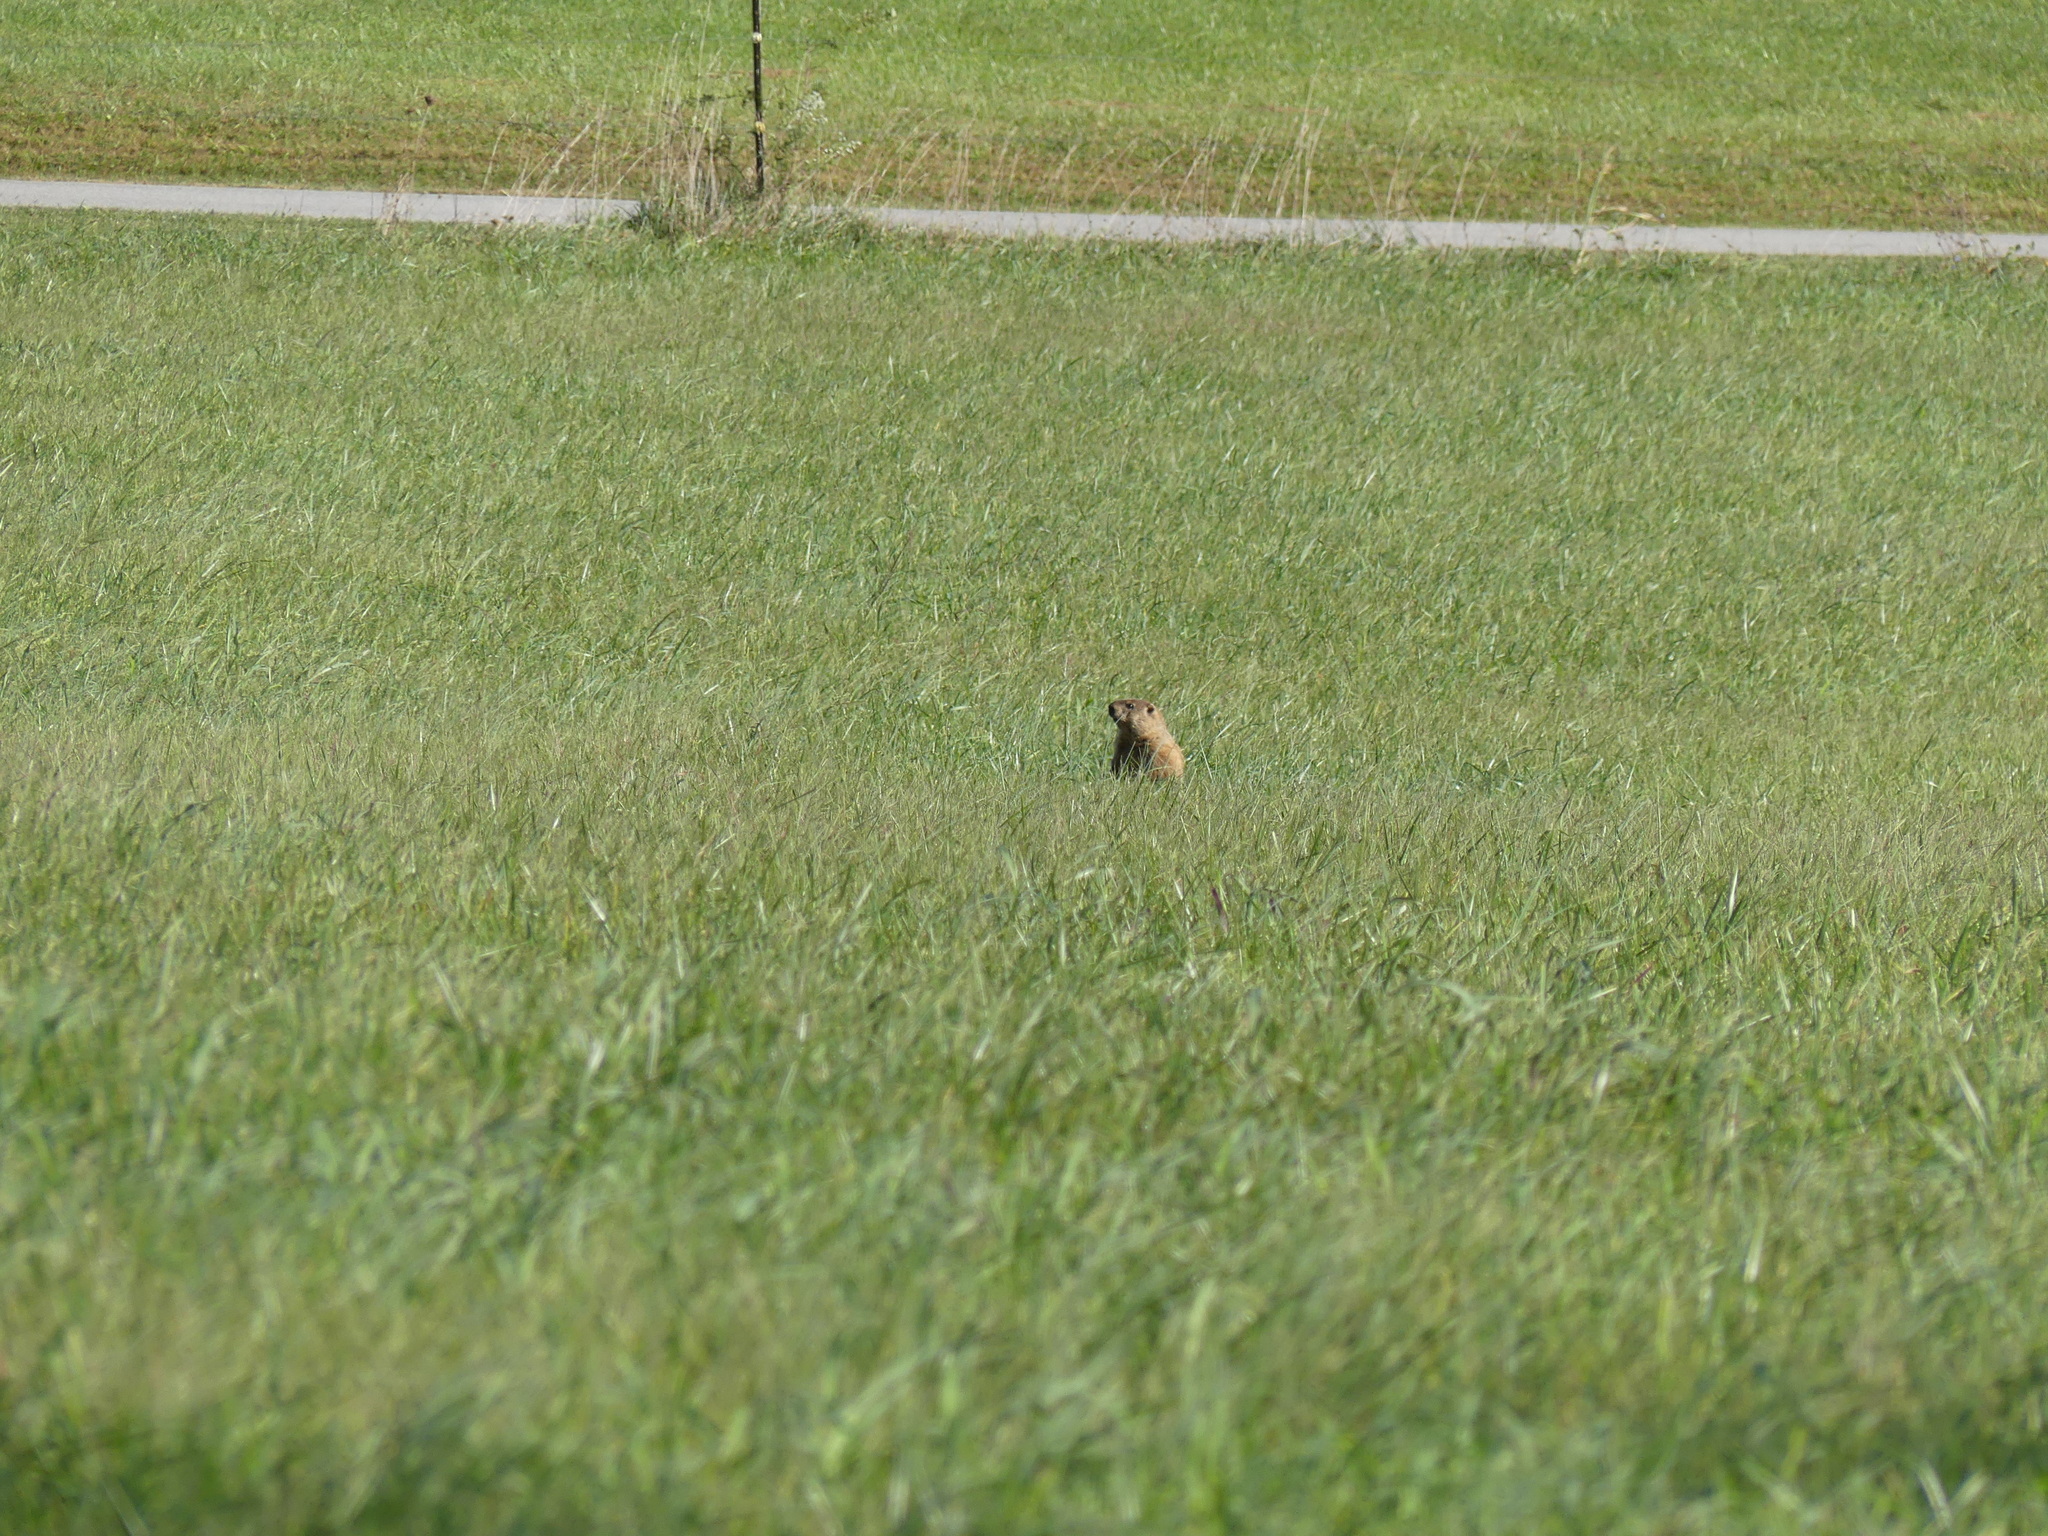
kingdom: Animalia
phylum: Chordata
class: Mammalia
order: Rodentia
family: Sciuridae
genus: Marmota
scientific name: Marmota monax
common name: Groundhog
